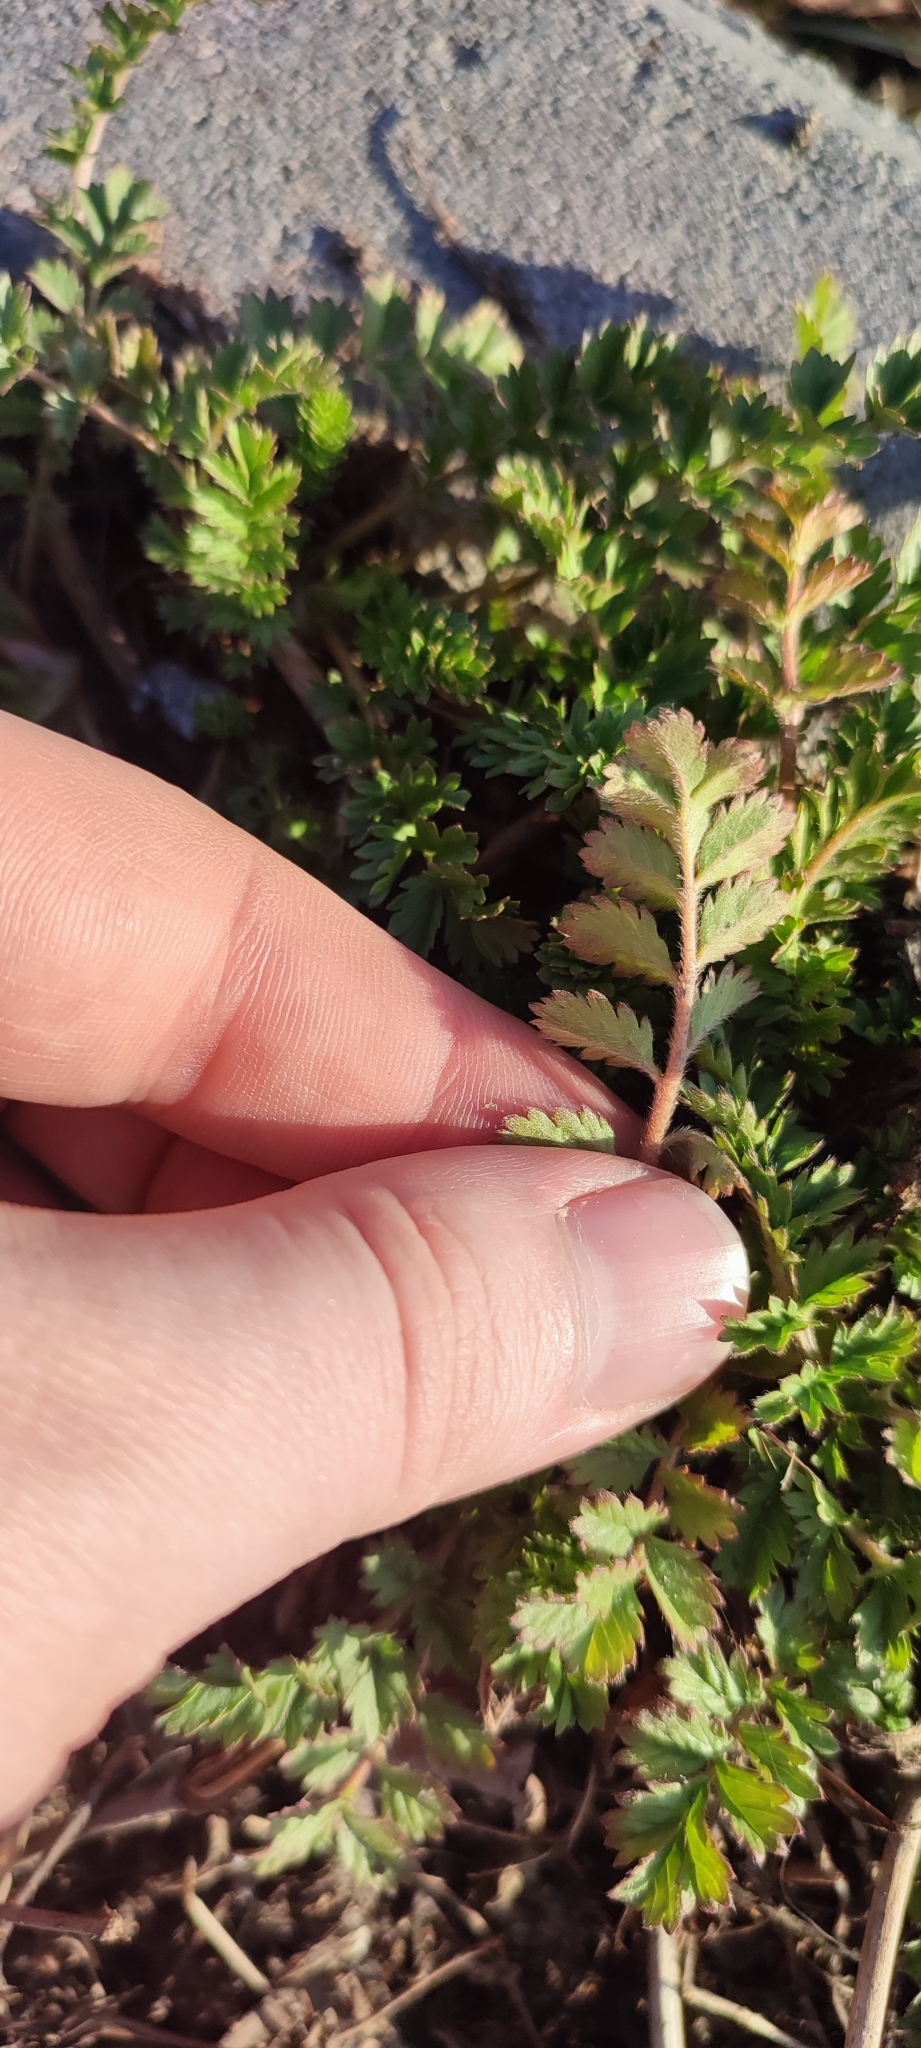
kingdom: Plantae
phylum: Tracheophyta
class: Magnoliopsida
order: Rosales
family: Rosaceae
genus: Potentilla
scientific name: Potentilla supina
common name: Prostrate cinquefoil
